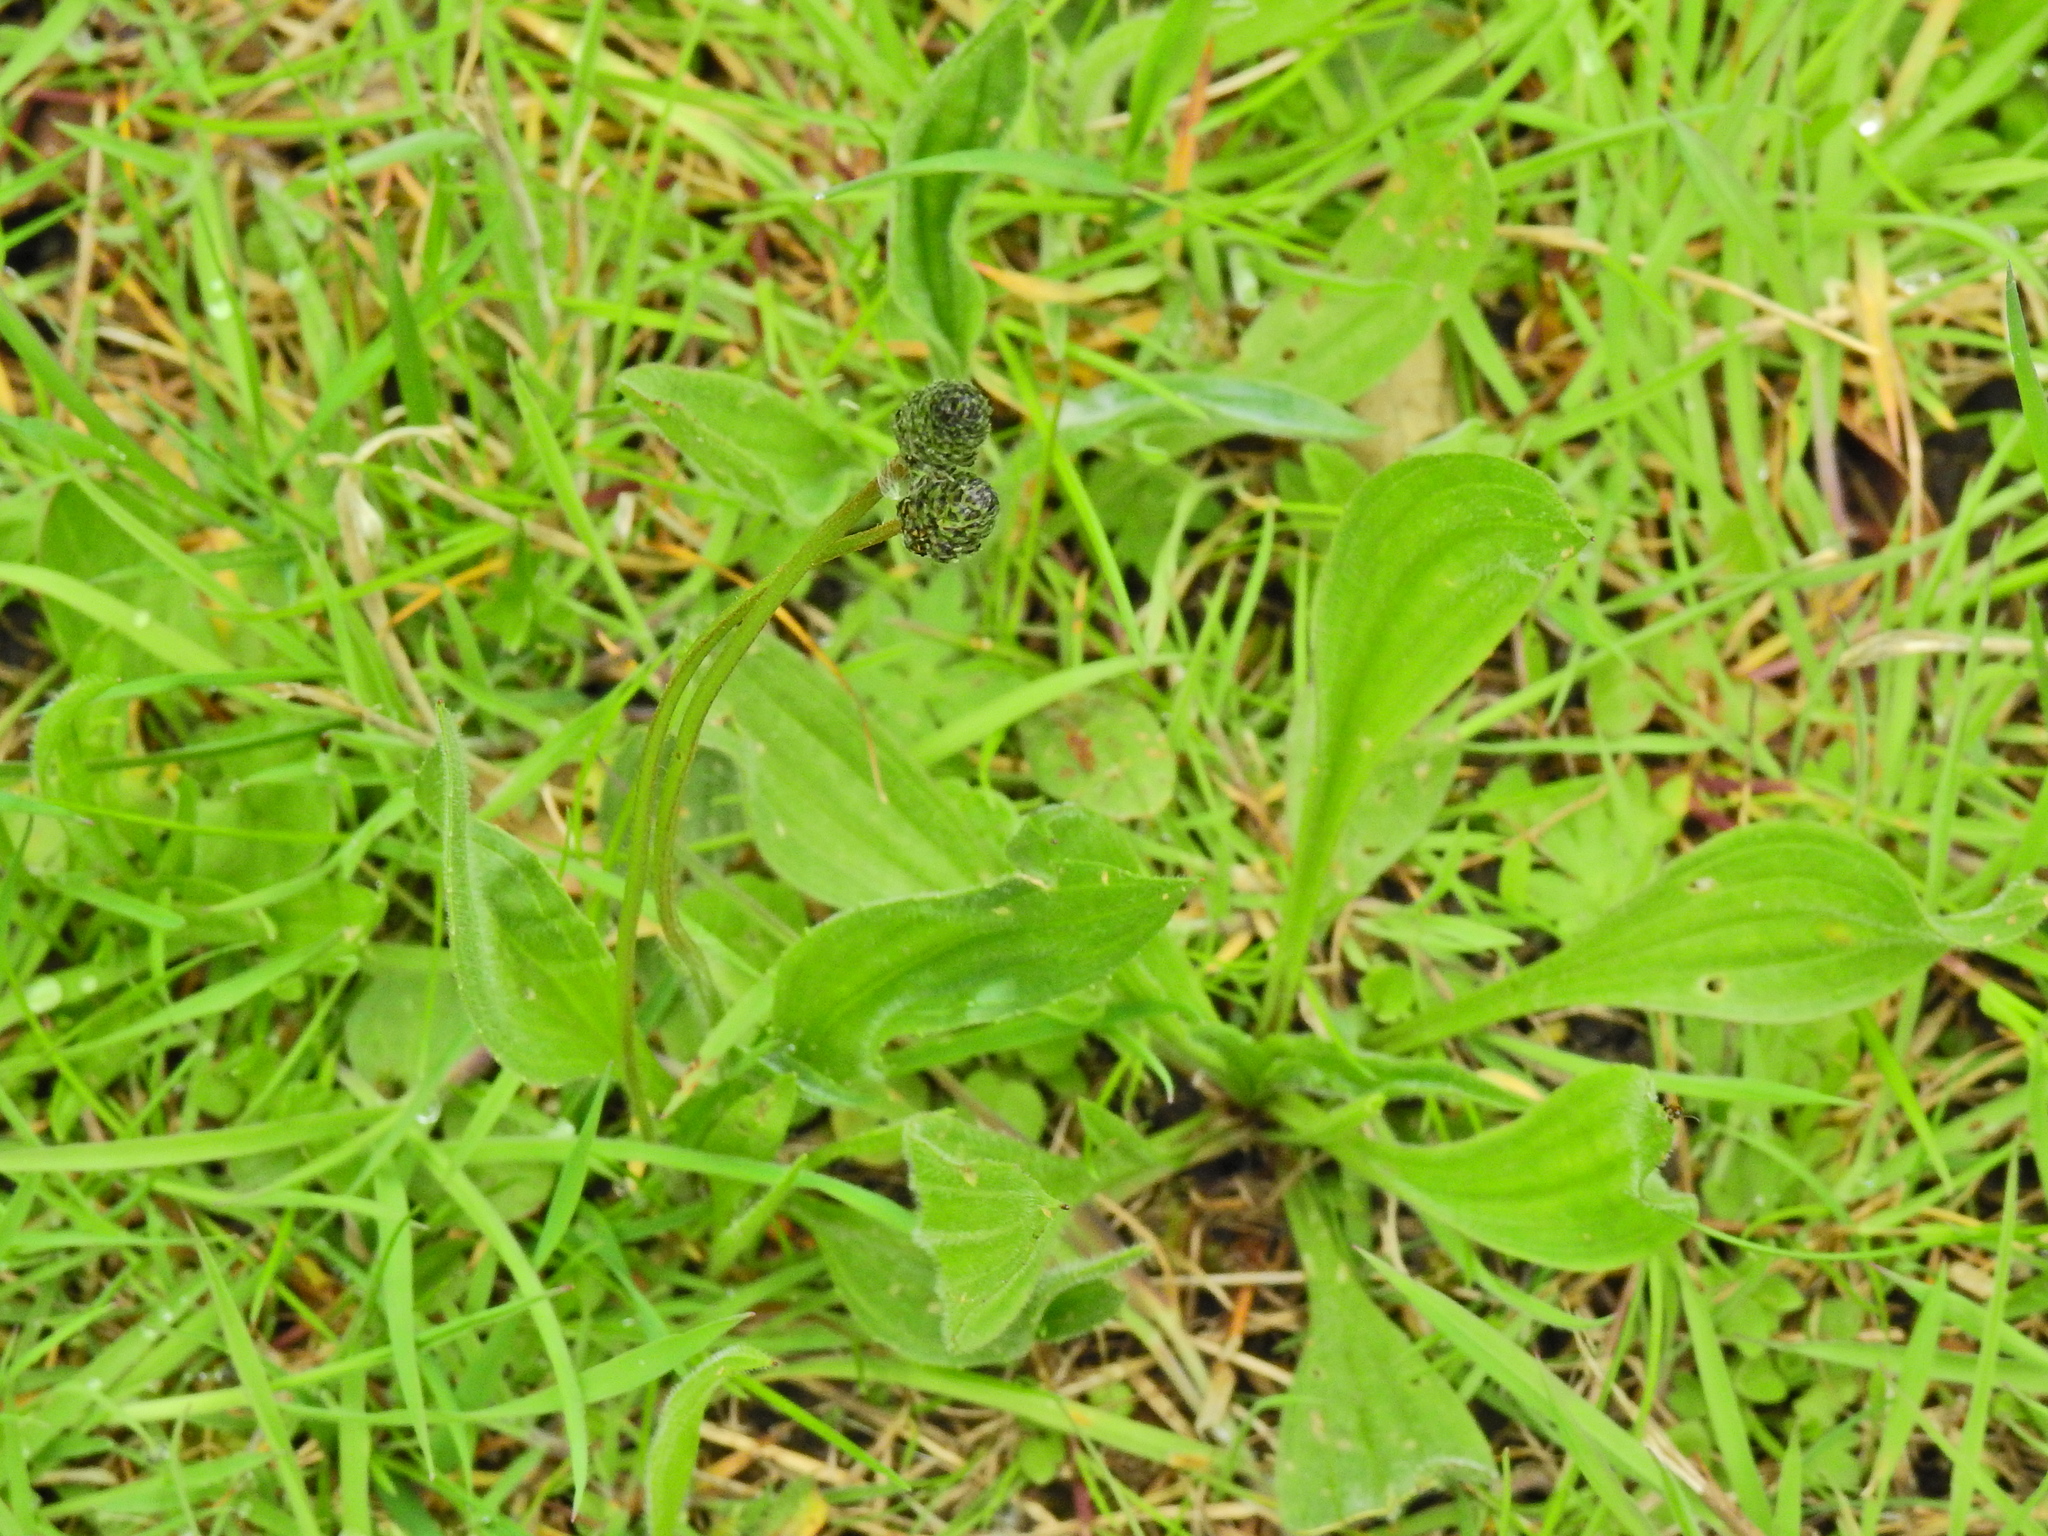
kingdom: Plantae
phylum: Tracheophyta
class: Magnoliopsida
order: Lamiales
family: Plantaginaceae
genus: Plantago
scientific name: Plantago lanceolata
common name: Ribwort plantain
